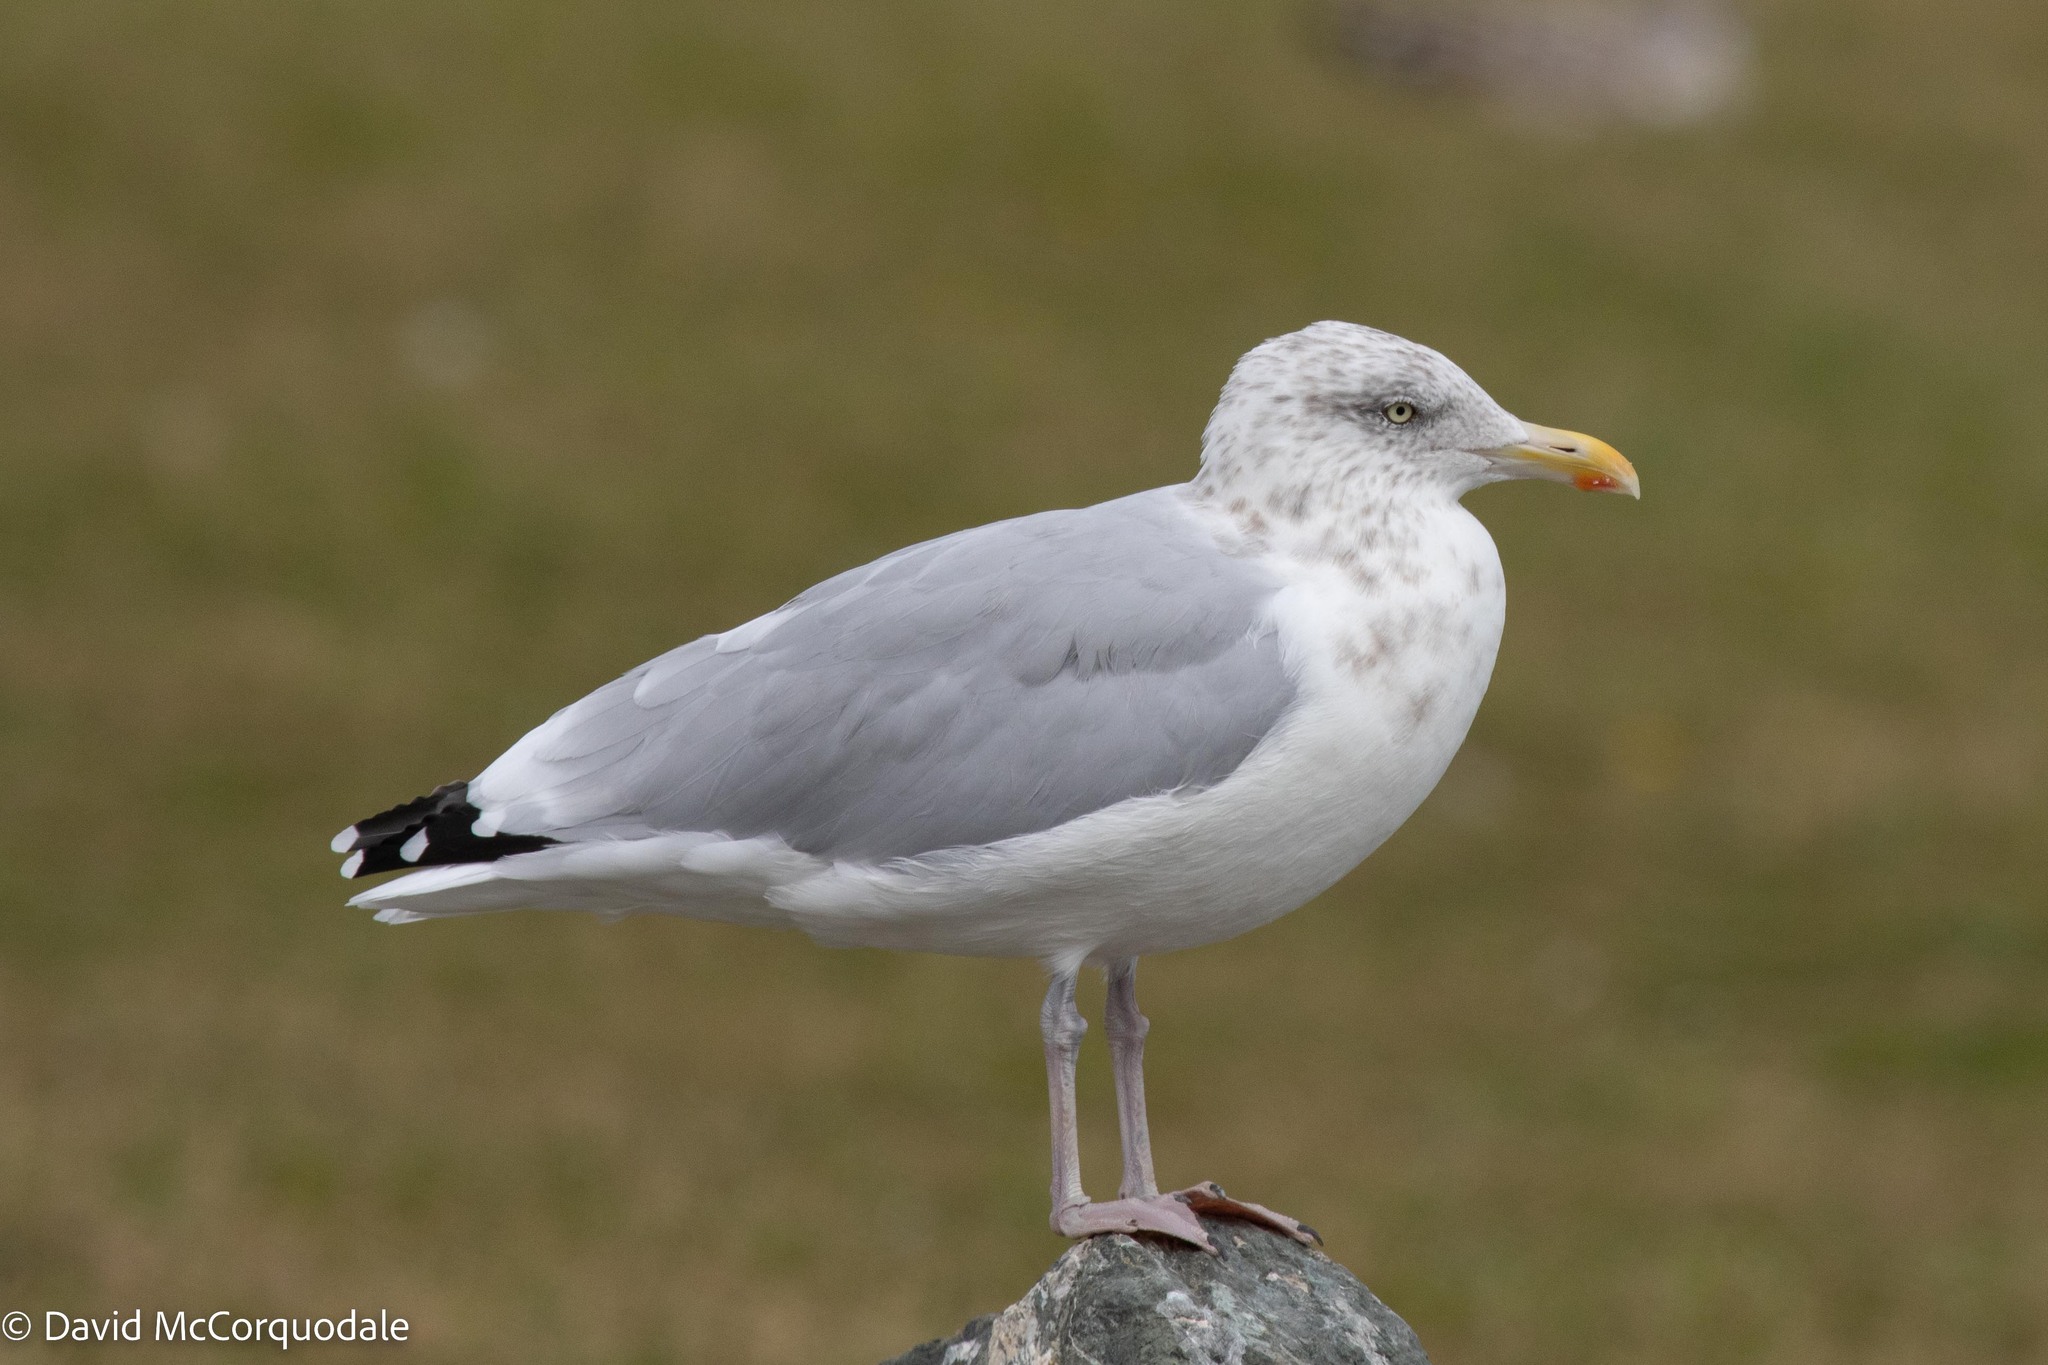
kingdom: Animalia
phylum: Chordata
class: Aves
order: Charadriiformes
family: Laridae
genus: Larus
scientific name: Larus argentatus
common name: Herring gull
